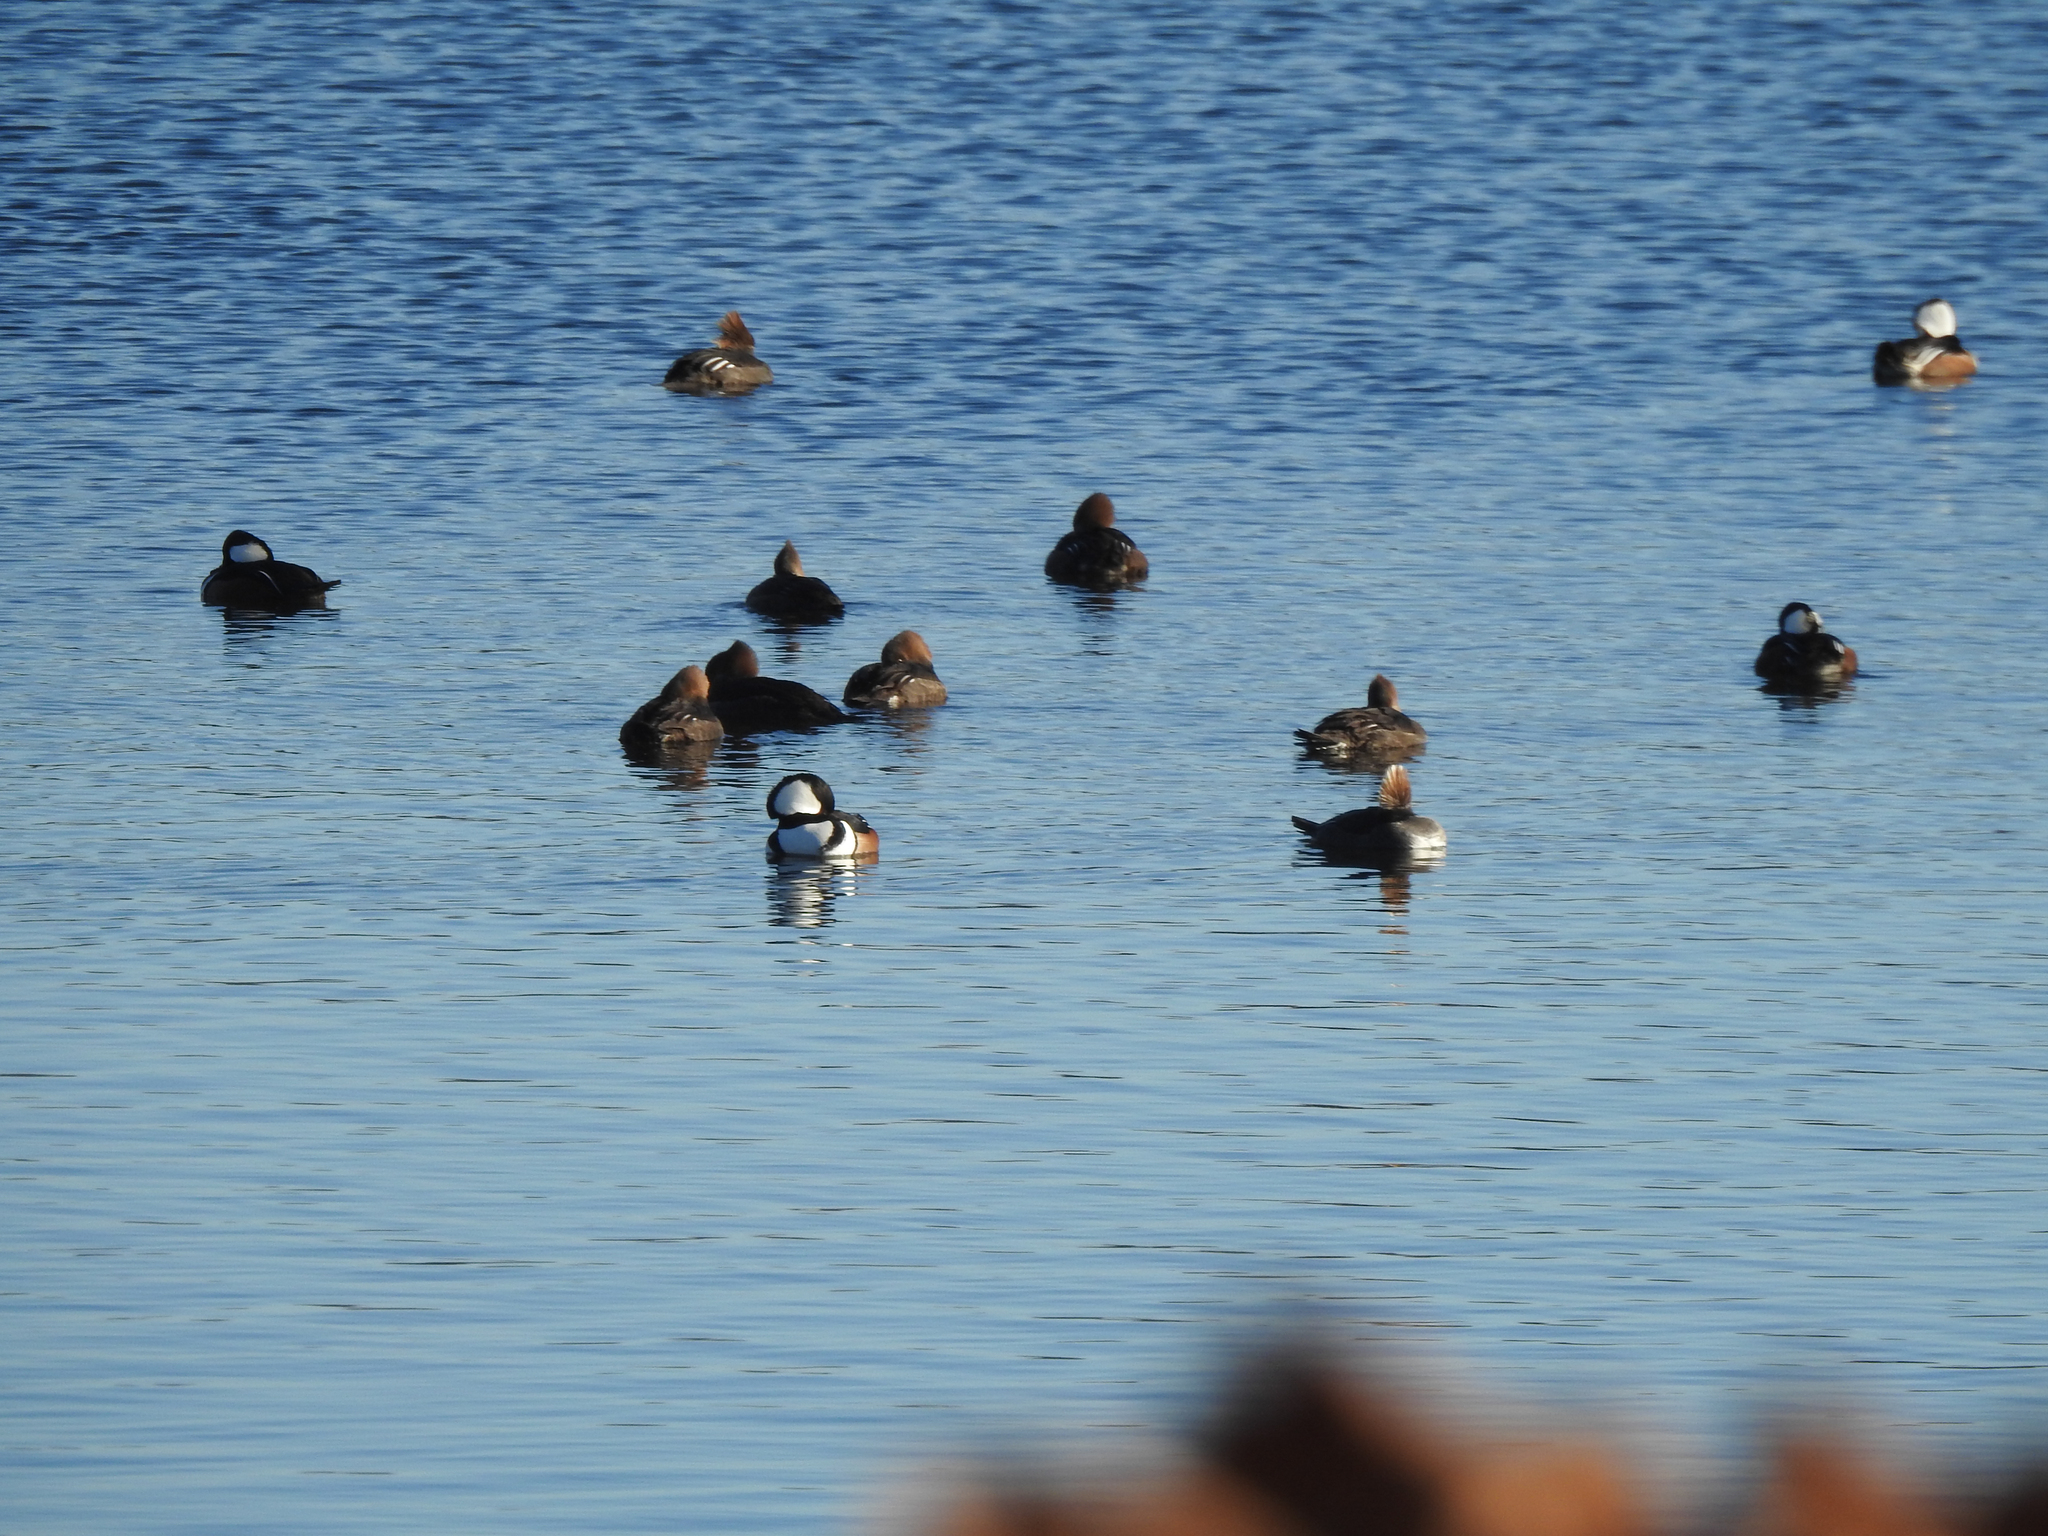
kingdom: Animalia
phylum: Chordata
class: Aves
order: Anseriformes
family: Anatidae
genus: Lophodytes
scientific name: Lophodytes cucullatus
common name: Hooded merganser
